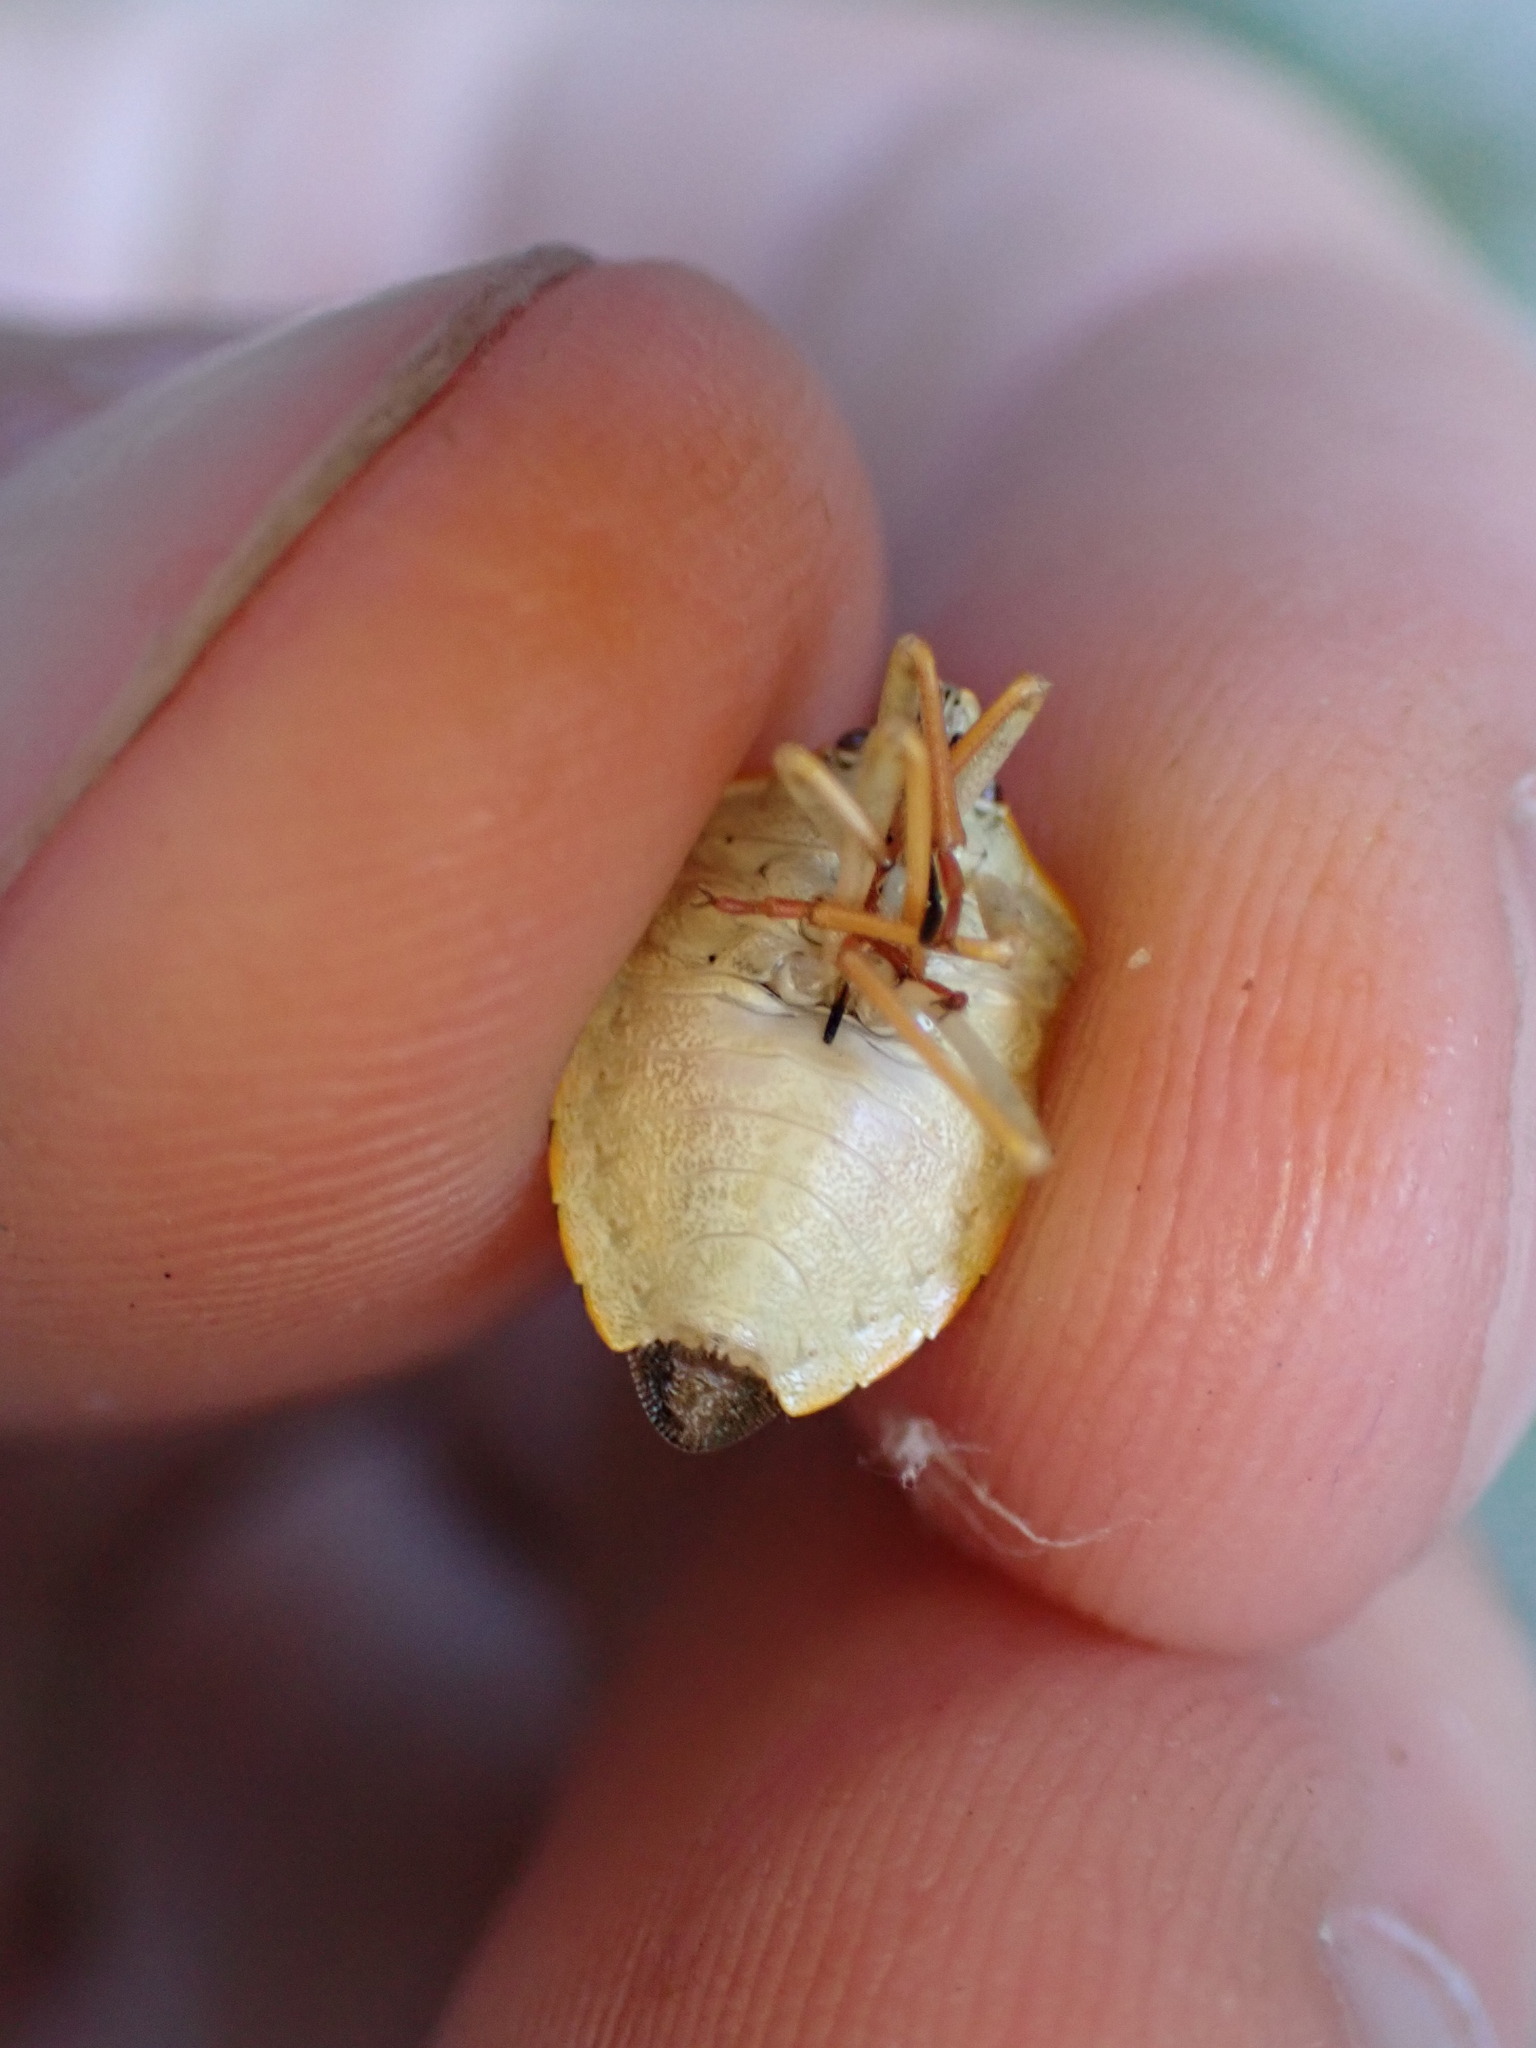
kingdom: Animalia
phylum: Arthropoda
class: Insecta
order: Hemiptera
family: Pentatomidae
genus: Carpocoris
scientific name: Carpocoris purpureipennis
